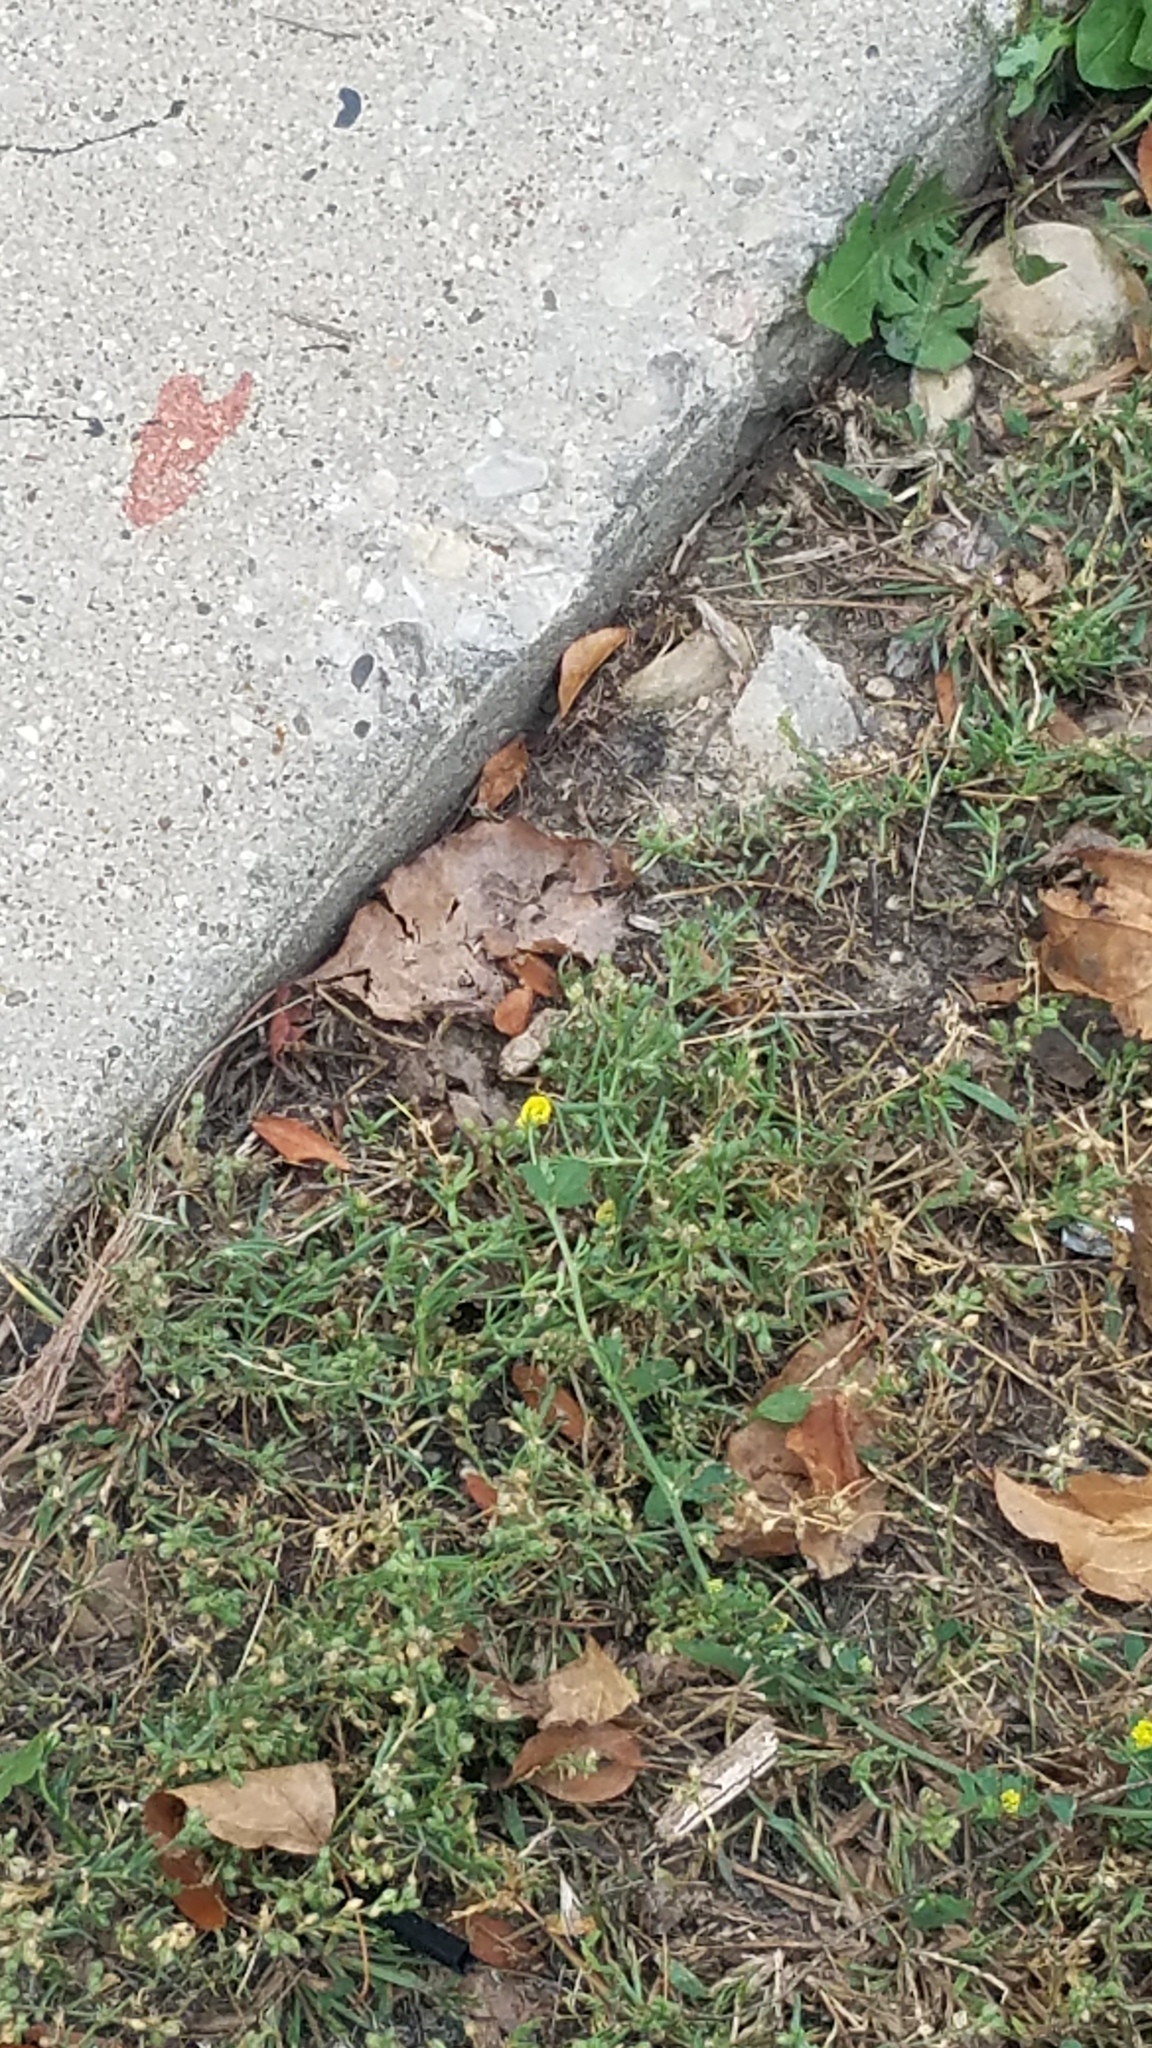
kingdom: Plantae
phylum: Tracheophyta
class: Magnoliopsida
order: Fabales
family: Fabaceae
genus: Medicago
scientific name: Medicago lupulina
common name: Black medick
